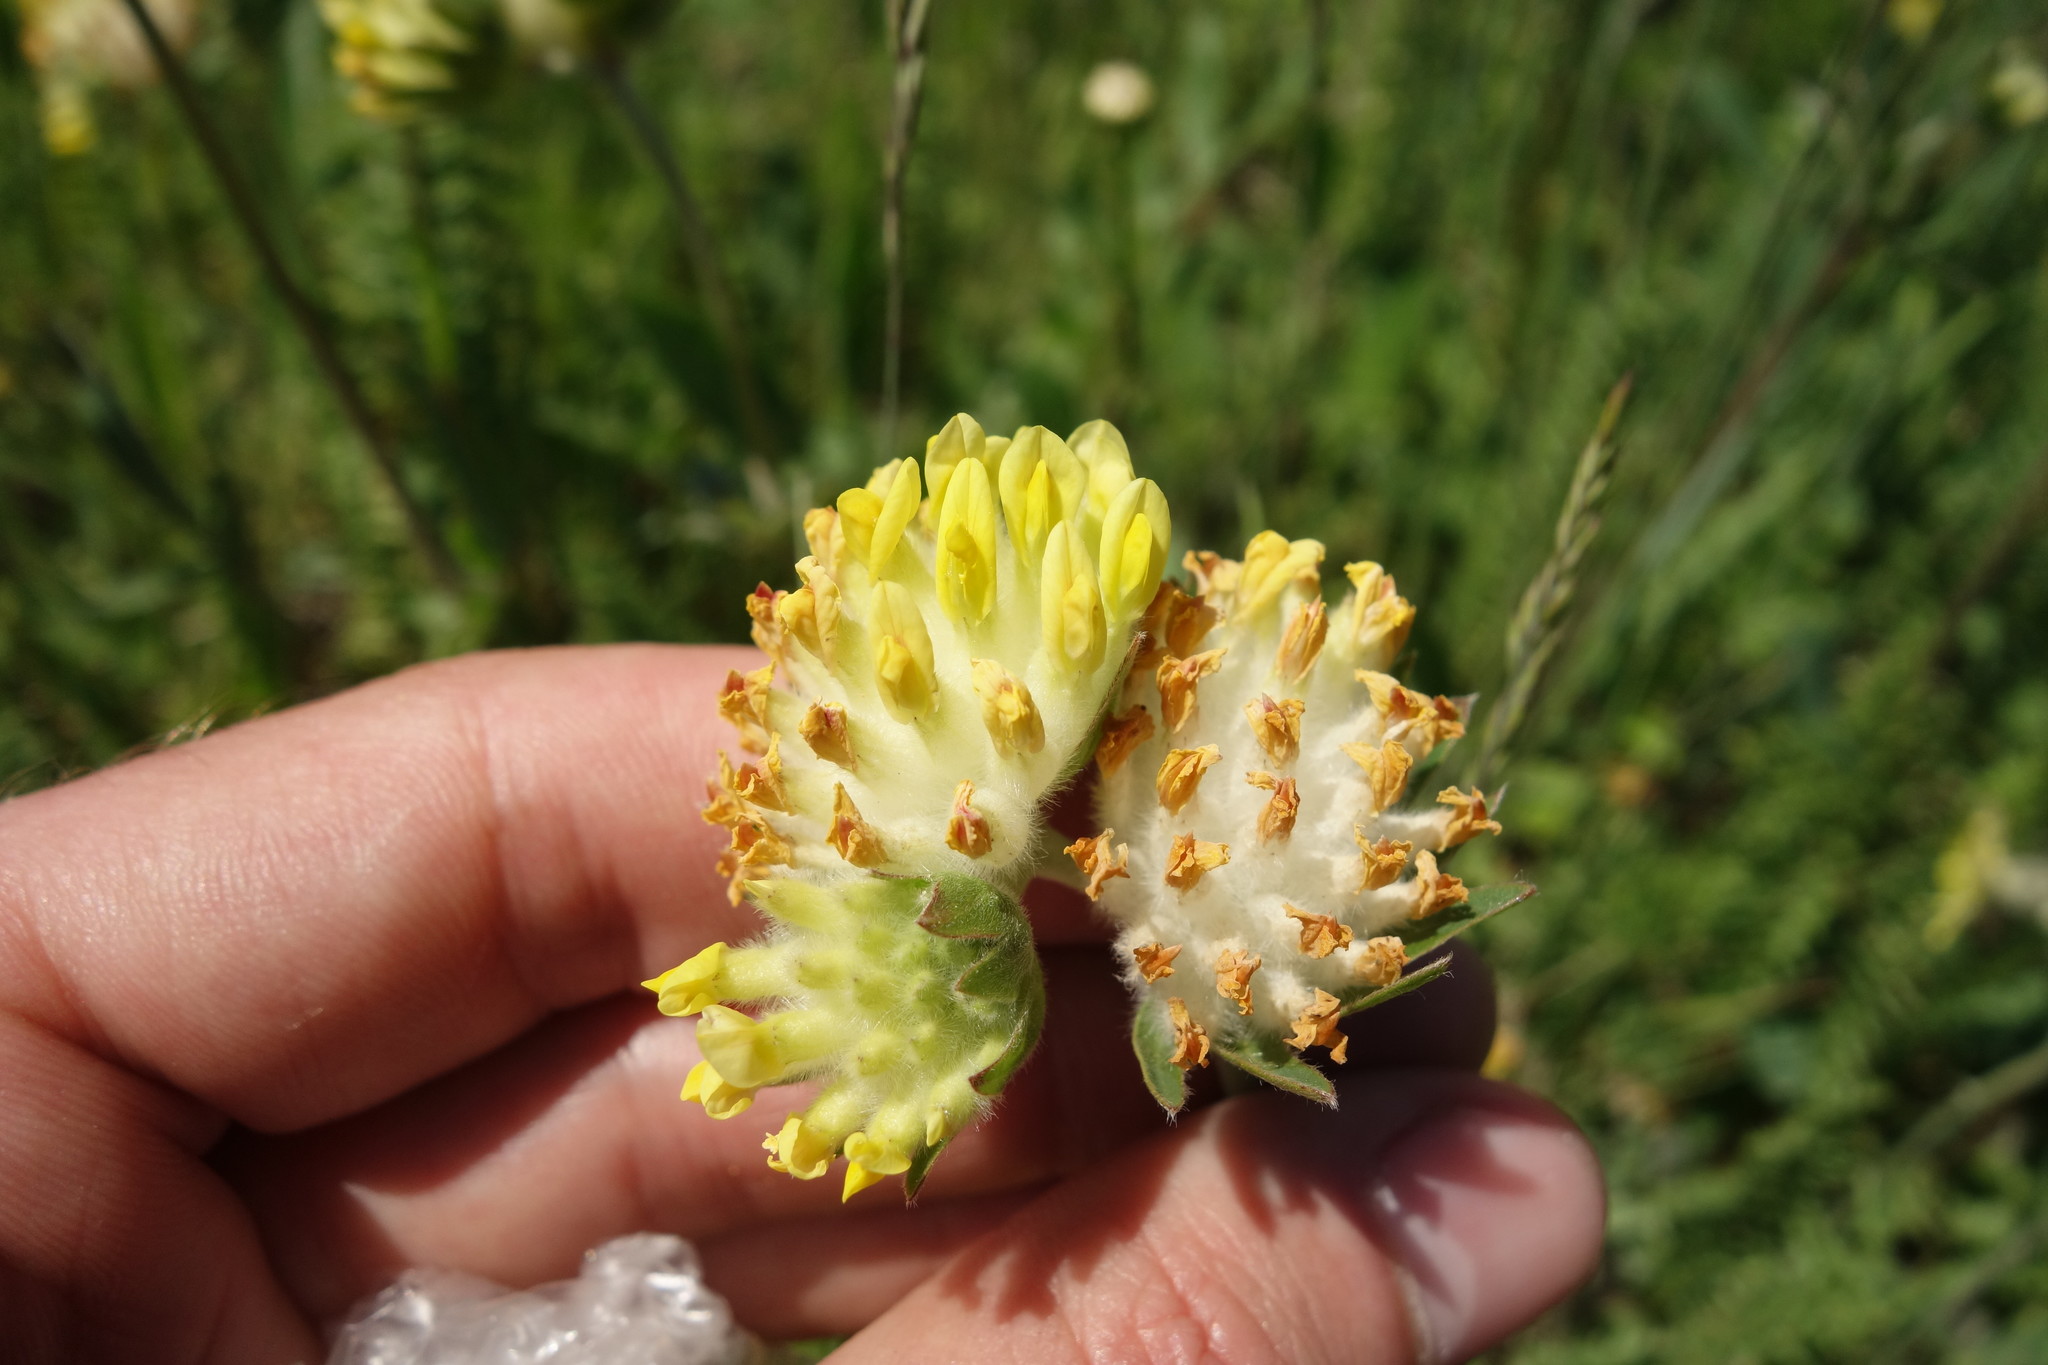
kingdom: Plantae
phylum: Tracheophyta
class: Magnoliopsida
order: Fabales
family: Fabaceae
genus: Anthyllis
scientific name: Anthyllis vulneraria
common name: Kidney vetch
